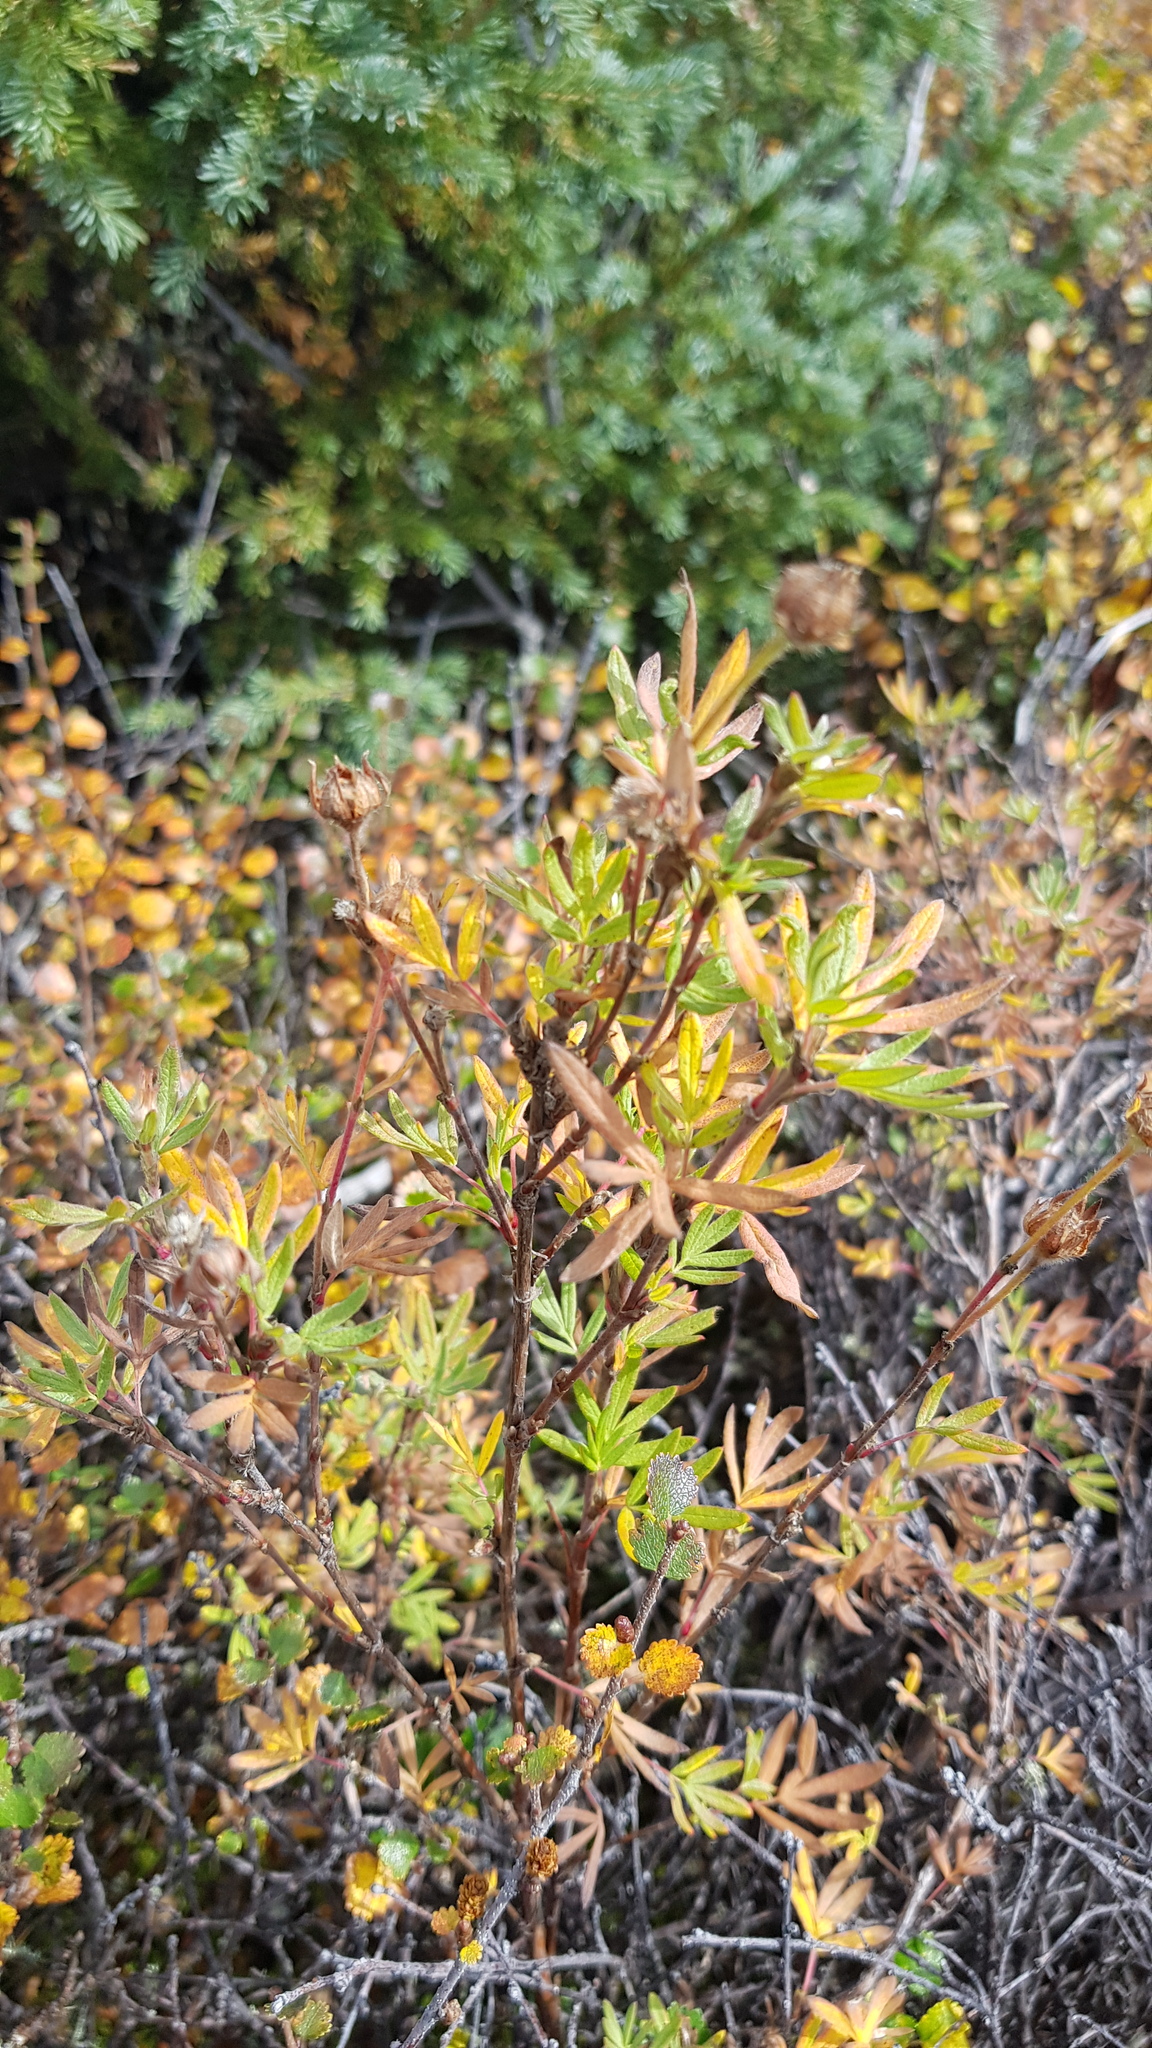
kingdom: Plantae
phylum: Tracheophyta
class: Magnoliopsida
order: Rosales
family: Rosaceae
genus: Dasiphora
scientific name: Dasiphora fruticosa
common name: Shrubby cinquefoil
